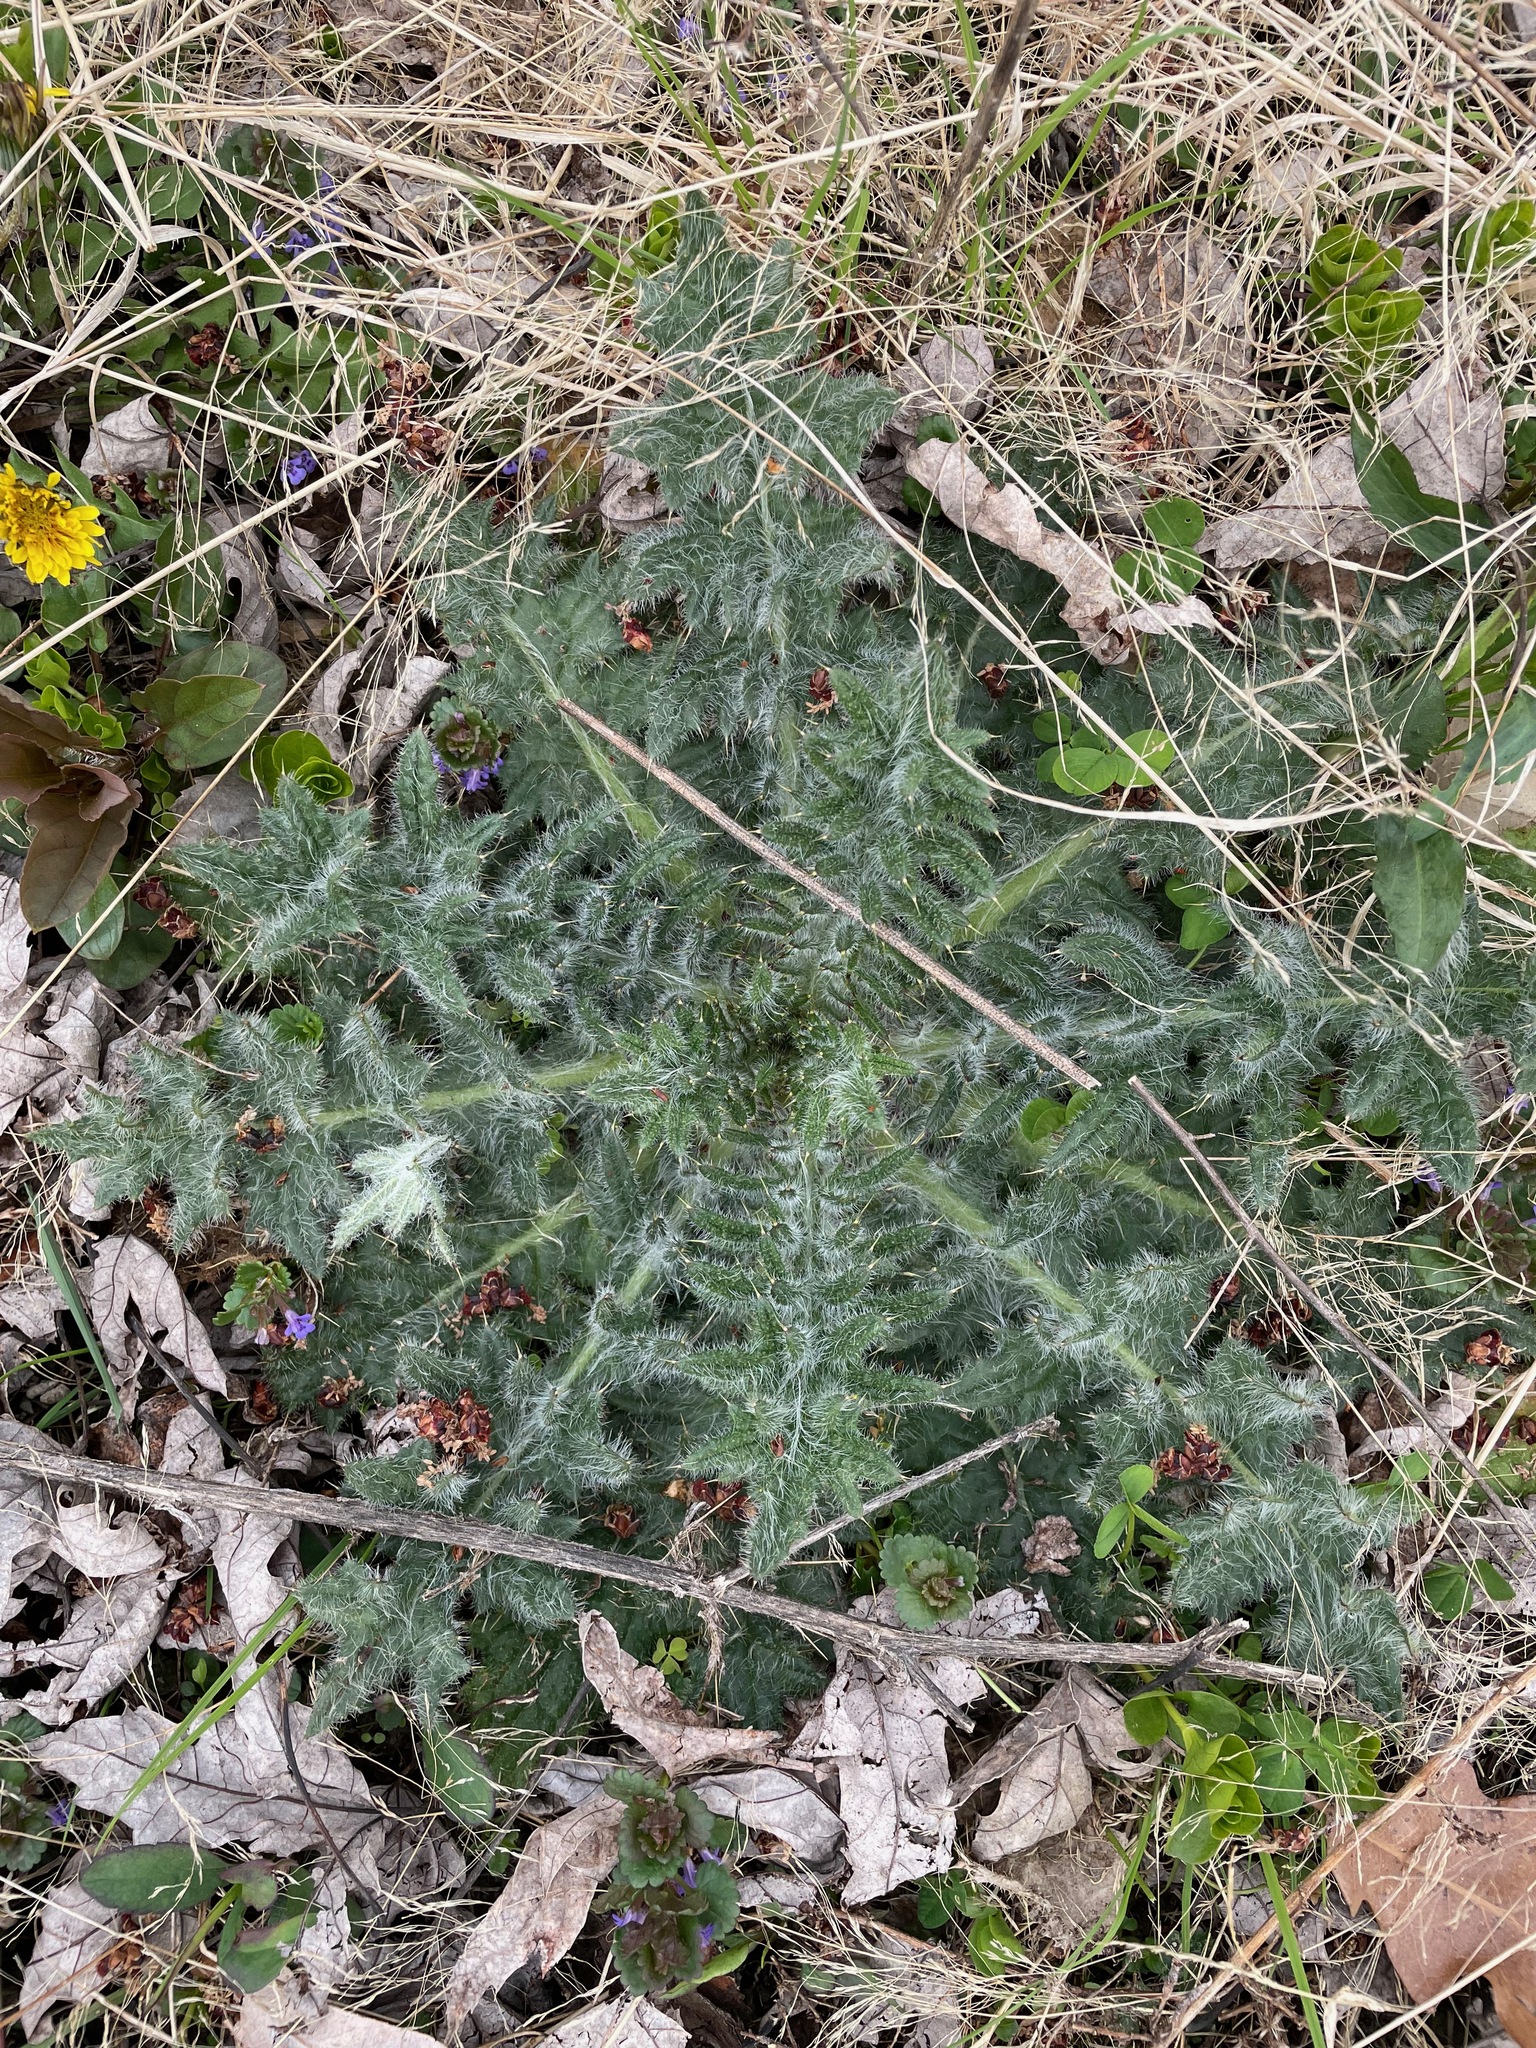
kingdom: Plantae
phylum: Tracheophyta
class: Magnoliopsida
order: Asterales
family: Asteraceae
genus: Cirsium
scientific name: Cirsium vulgare
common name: Bull thistle
